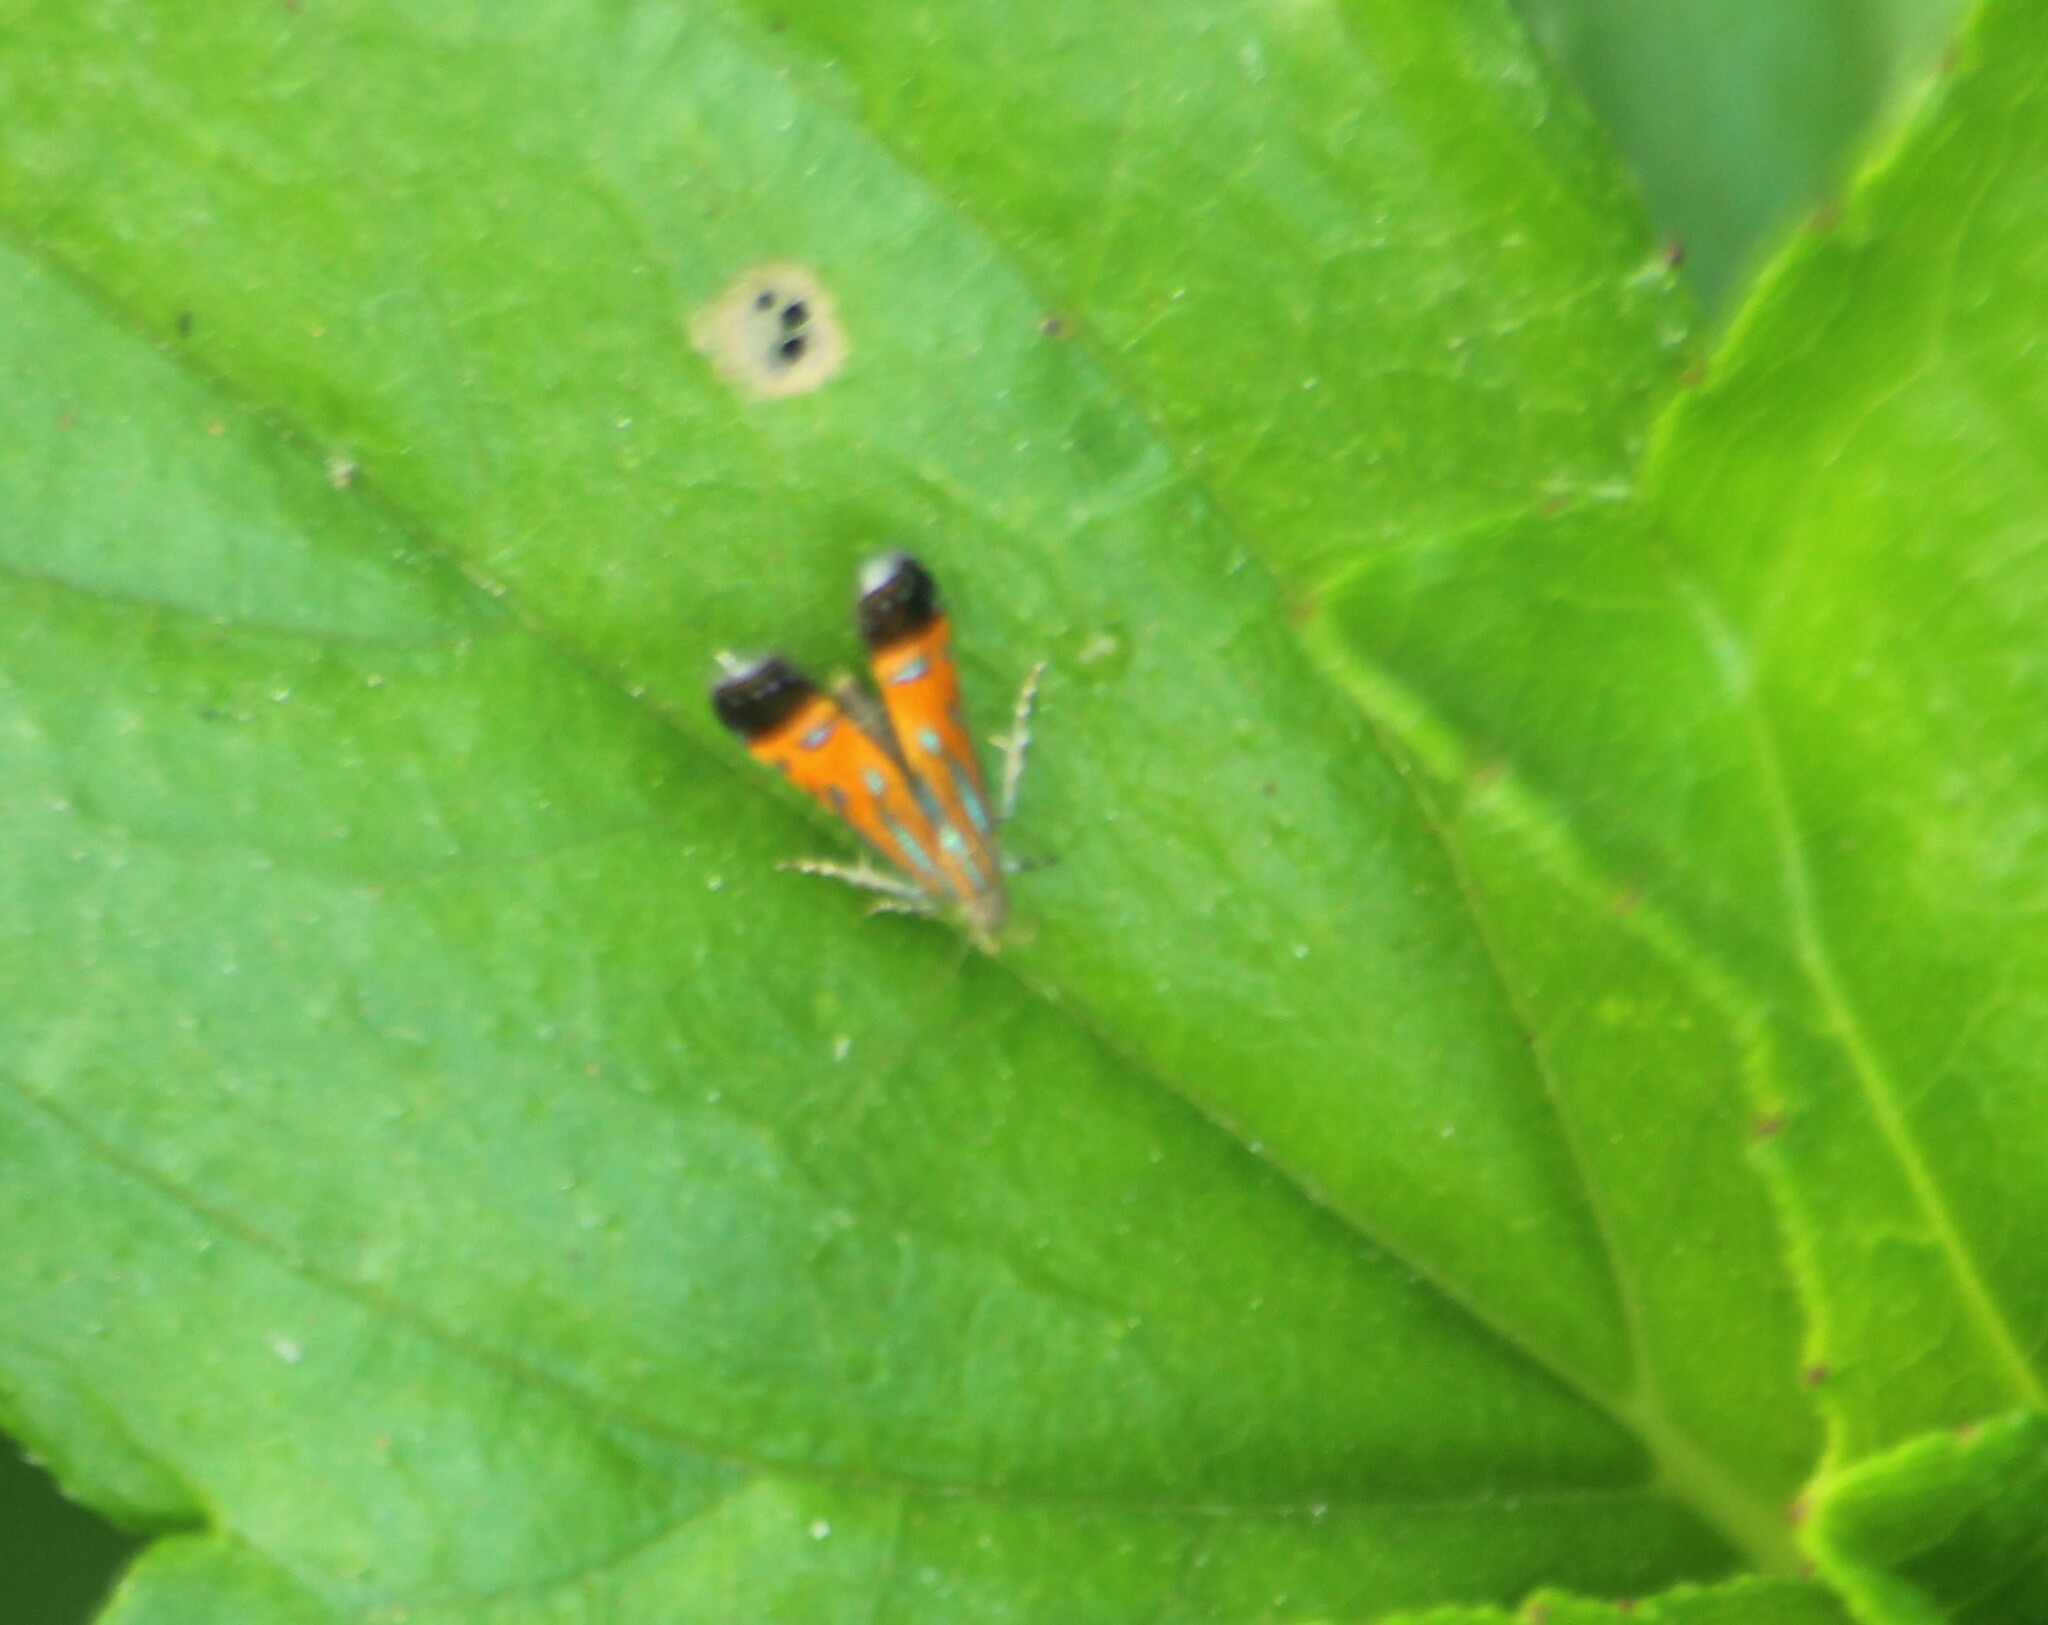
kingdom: Animalia
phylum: Arthropoda
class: Insecta
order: Lepidoptera
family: Gelechiidae
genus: Tricyanaula
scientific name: Tricyanaula aurantiaca
